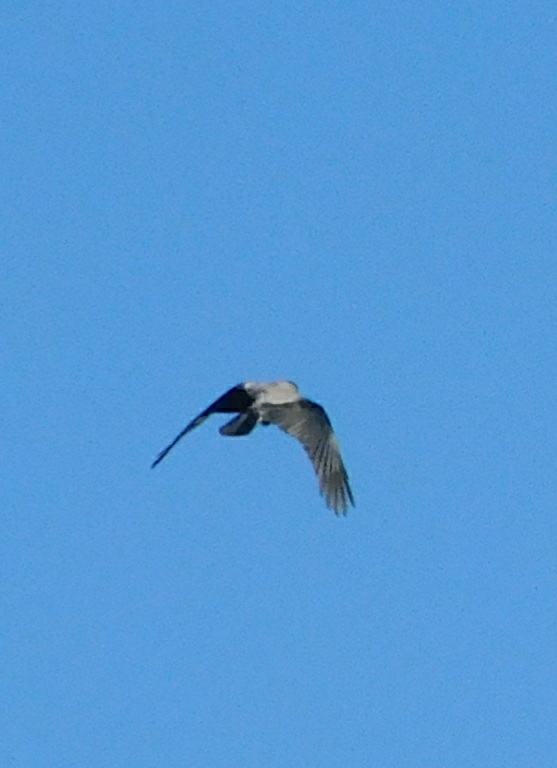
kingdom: Animalia
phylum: Chordata
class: Aves
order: Passeriformes
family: Corvidae
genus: Corvus
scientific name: Corvus cornix
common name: Hooded crow
